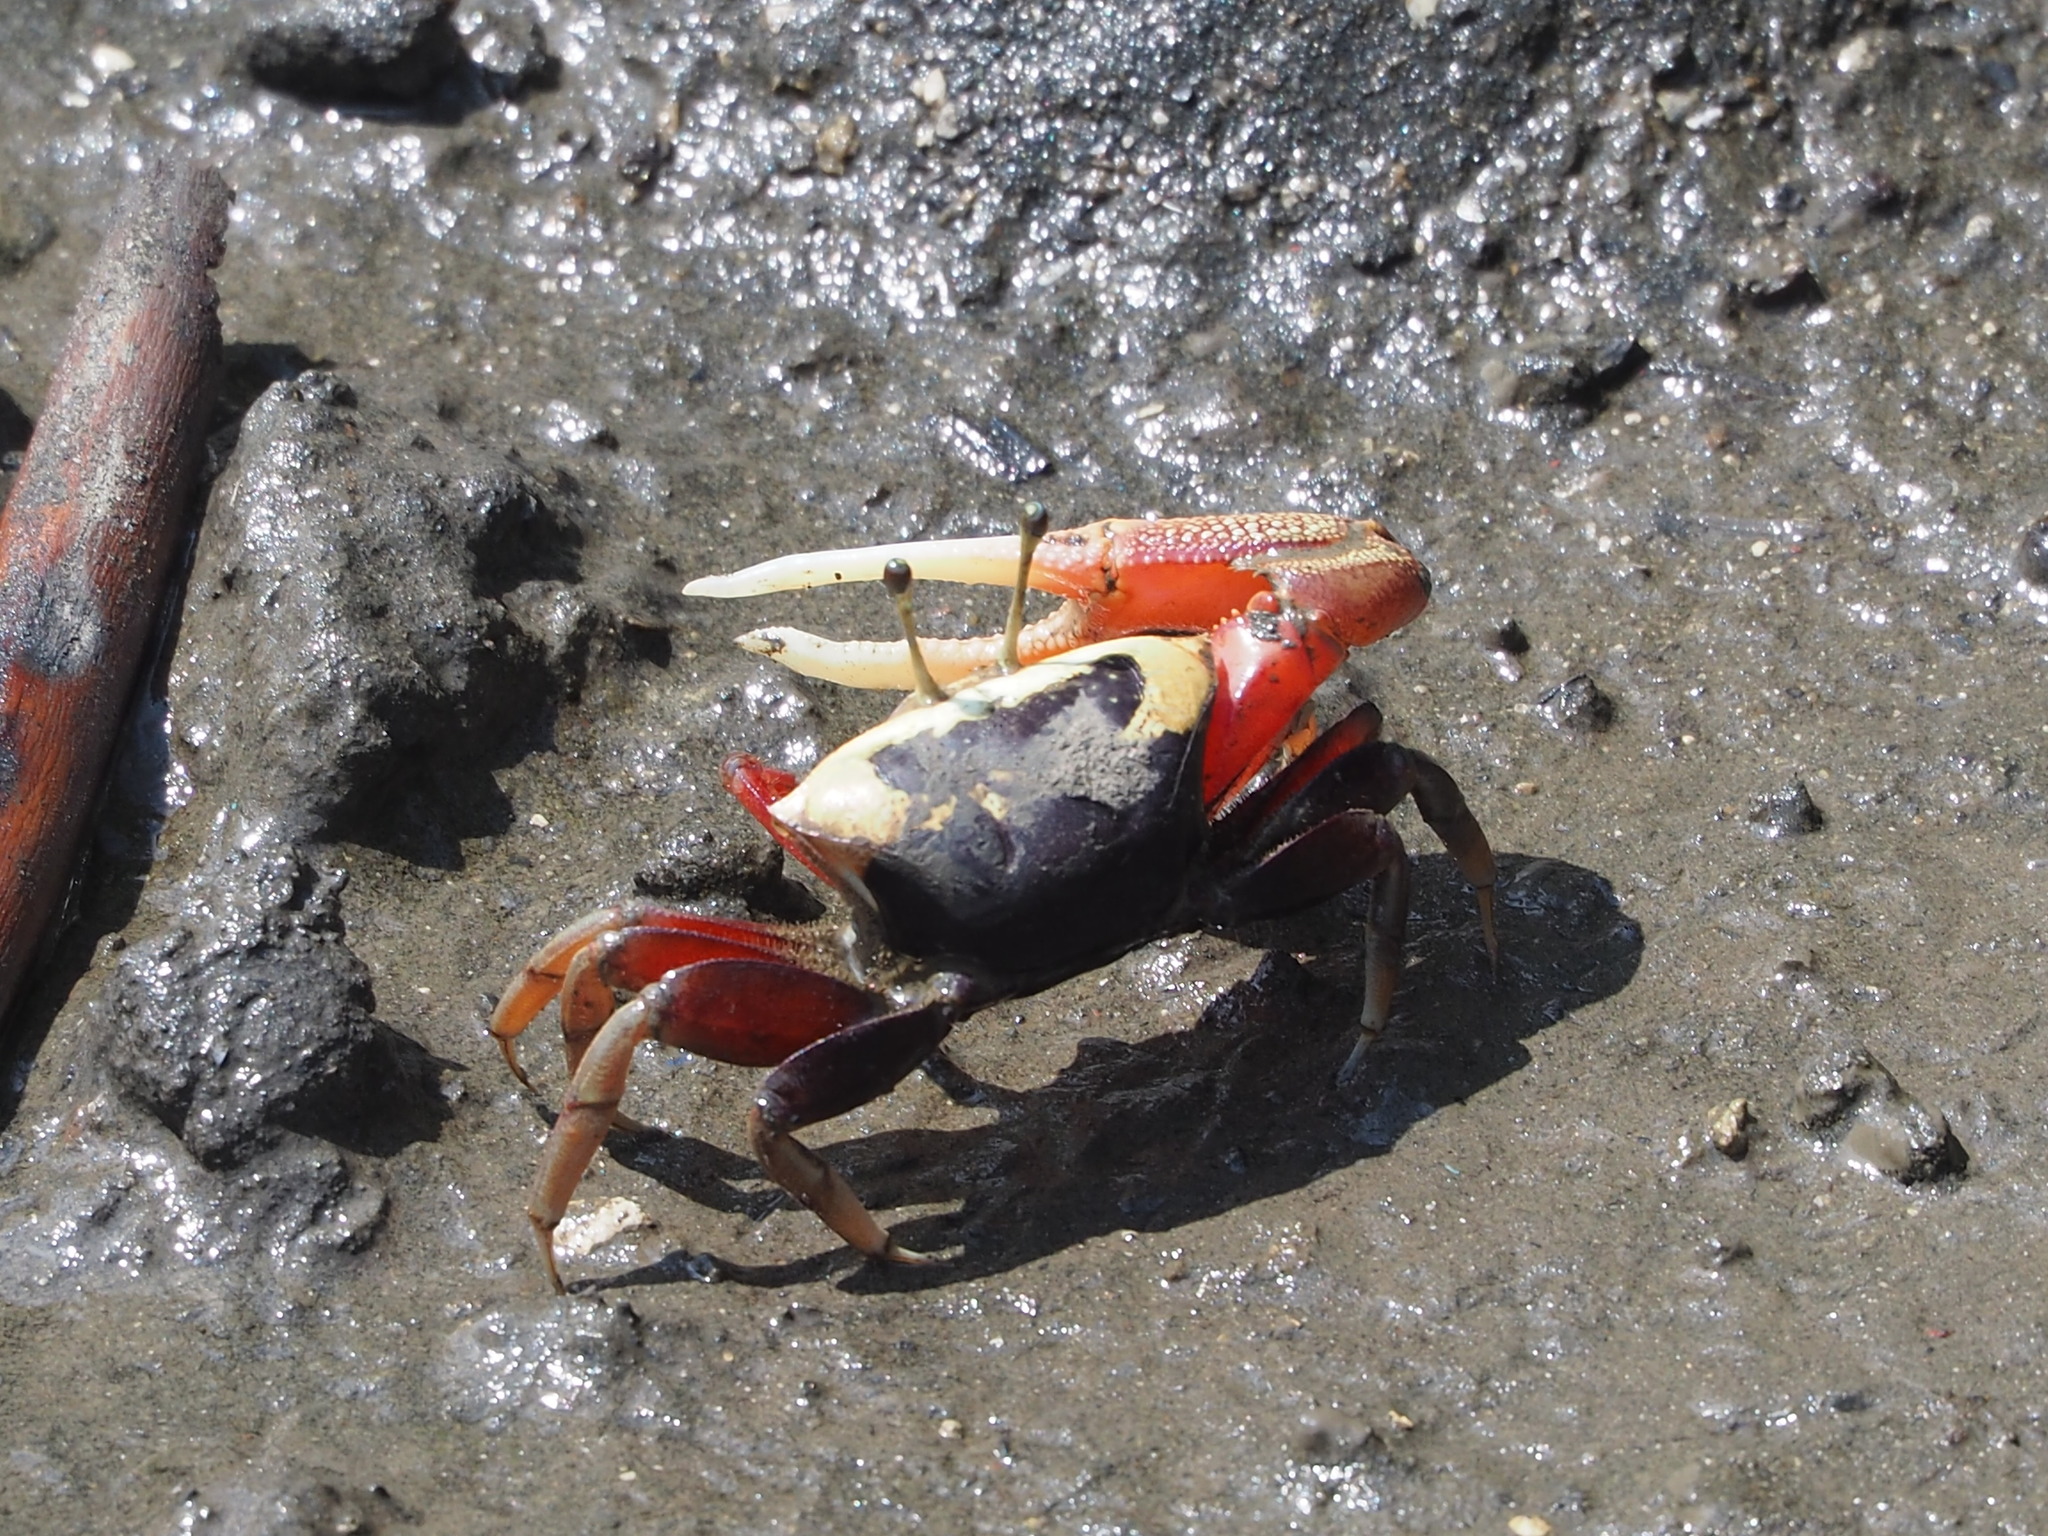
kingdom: Animalia
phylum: Arthropoda
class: Malacostraca
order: Decapoda
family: Ocypodidae
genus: Tubuca
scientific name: Tubuca arcuata
